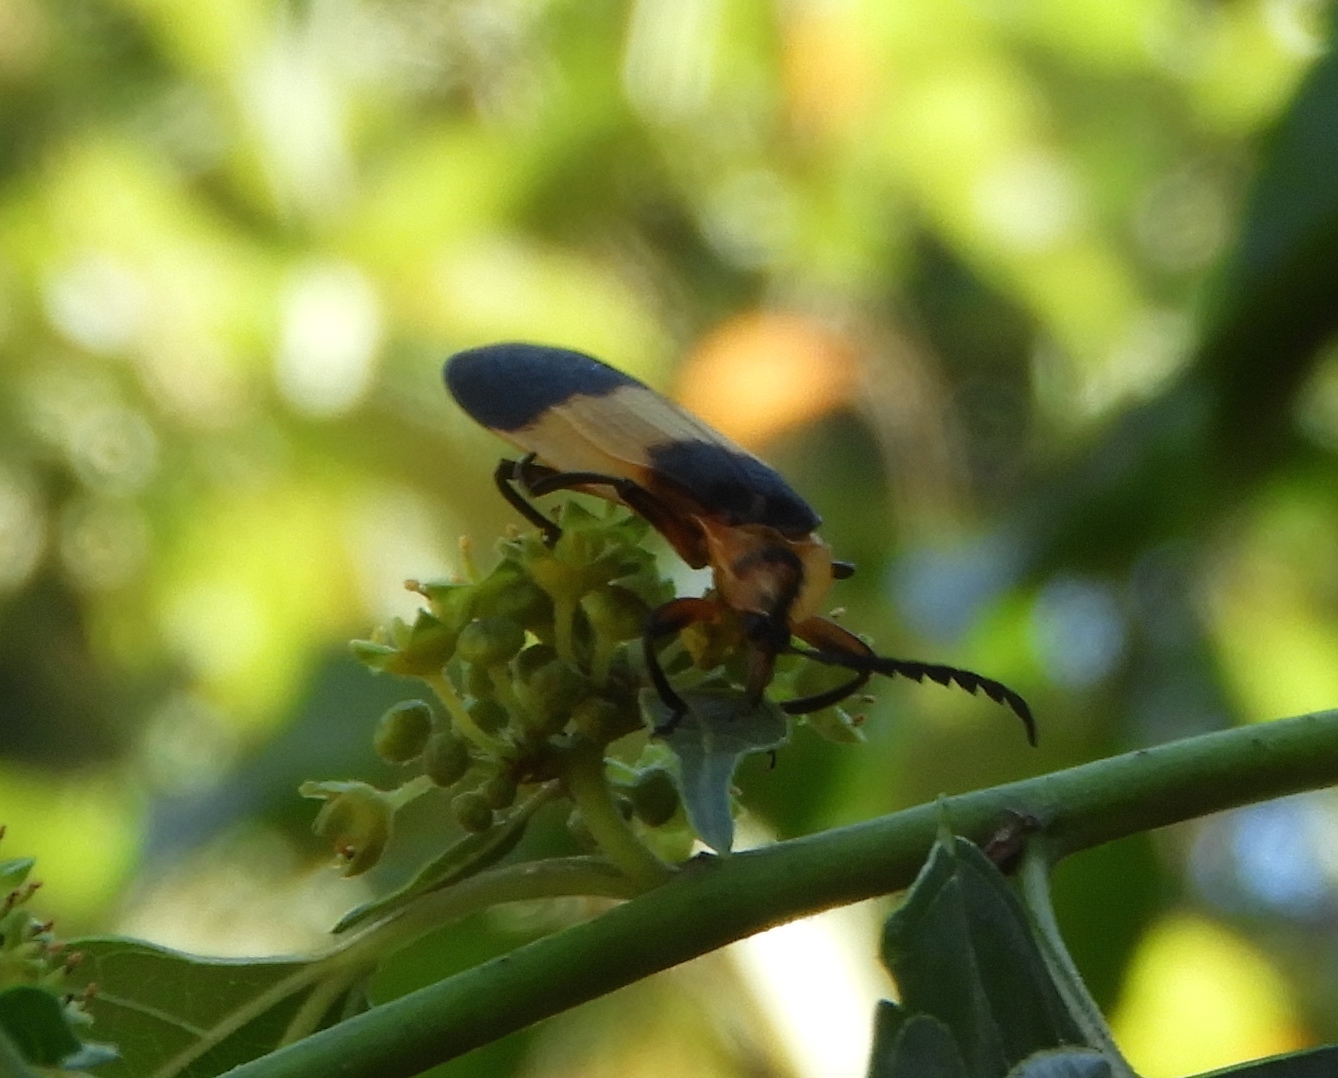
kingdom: Animalia
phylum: Arthropoda
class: Insecta
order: Coleoptera
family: Lycidae
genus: Lycus
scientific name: Lycus
